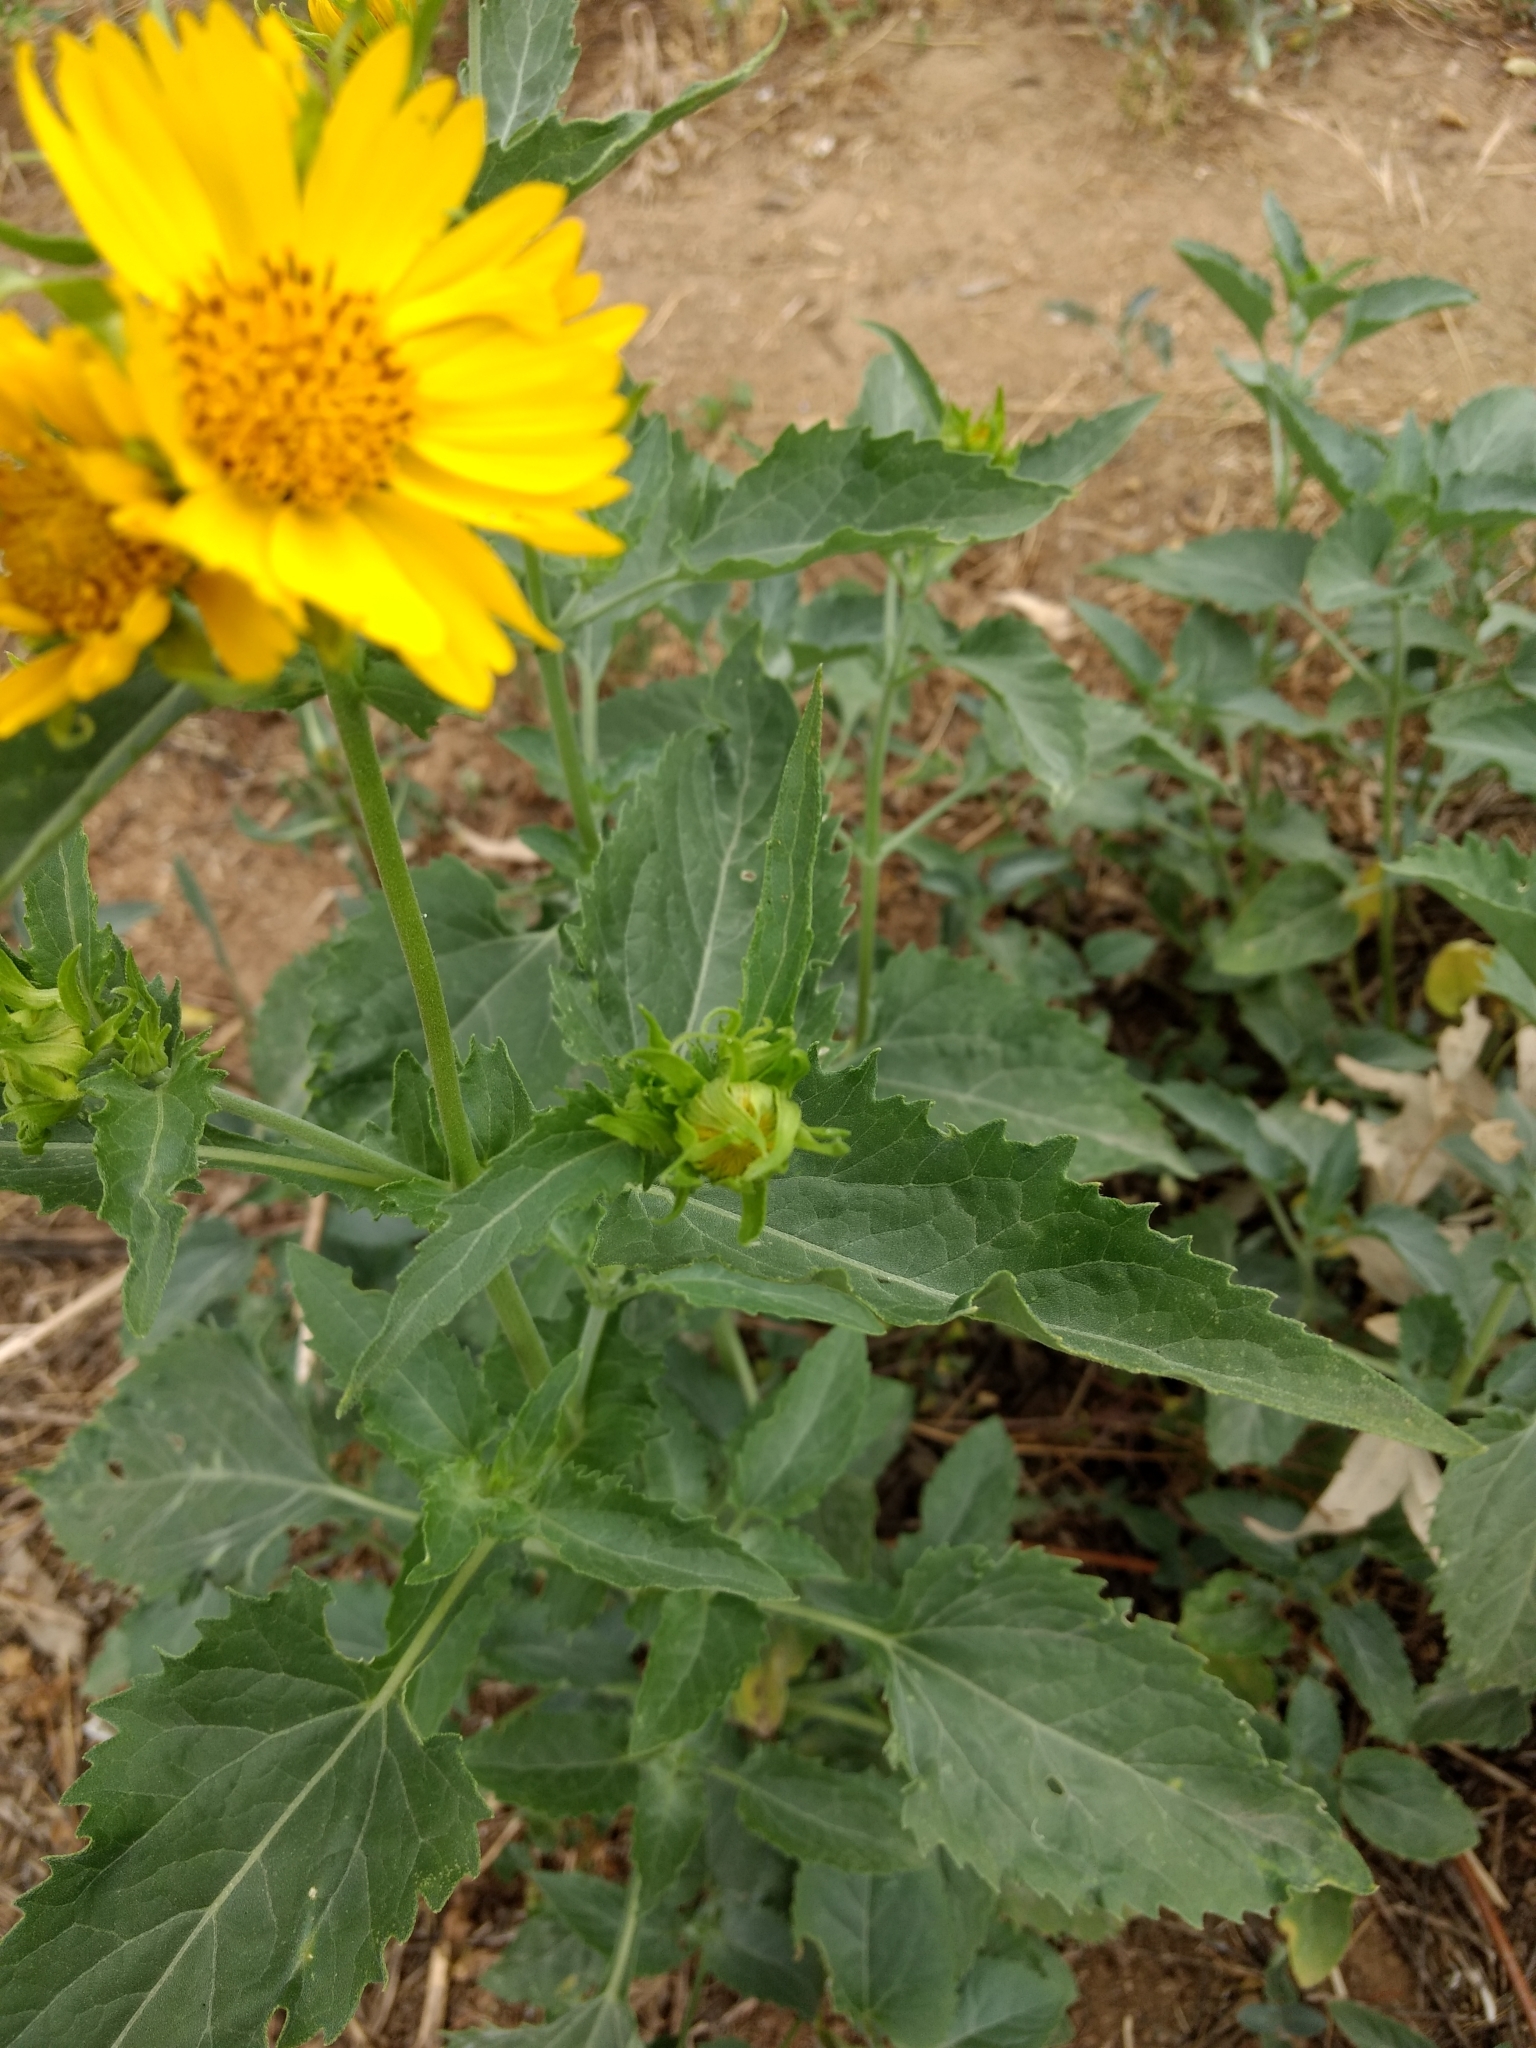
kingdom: Plantae
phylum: Tracheophyta
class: Magnoliopsida
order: Asterales
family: Asteraceae
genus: Verbesina
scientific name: Verbesina encelioides
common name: Golden crownbeard
